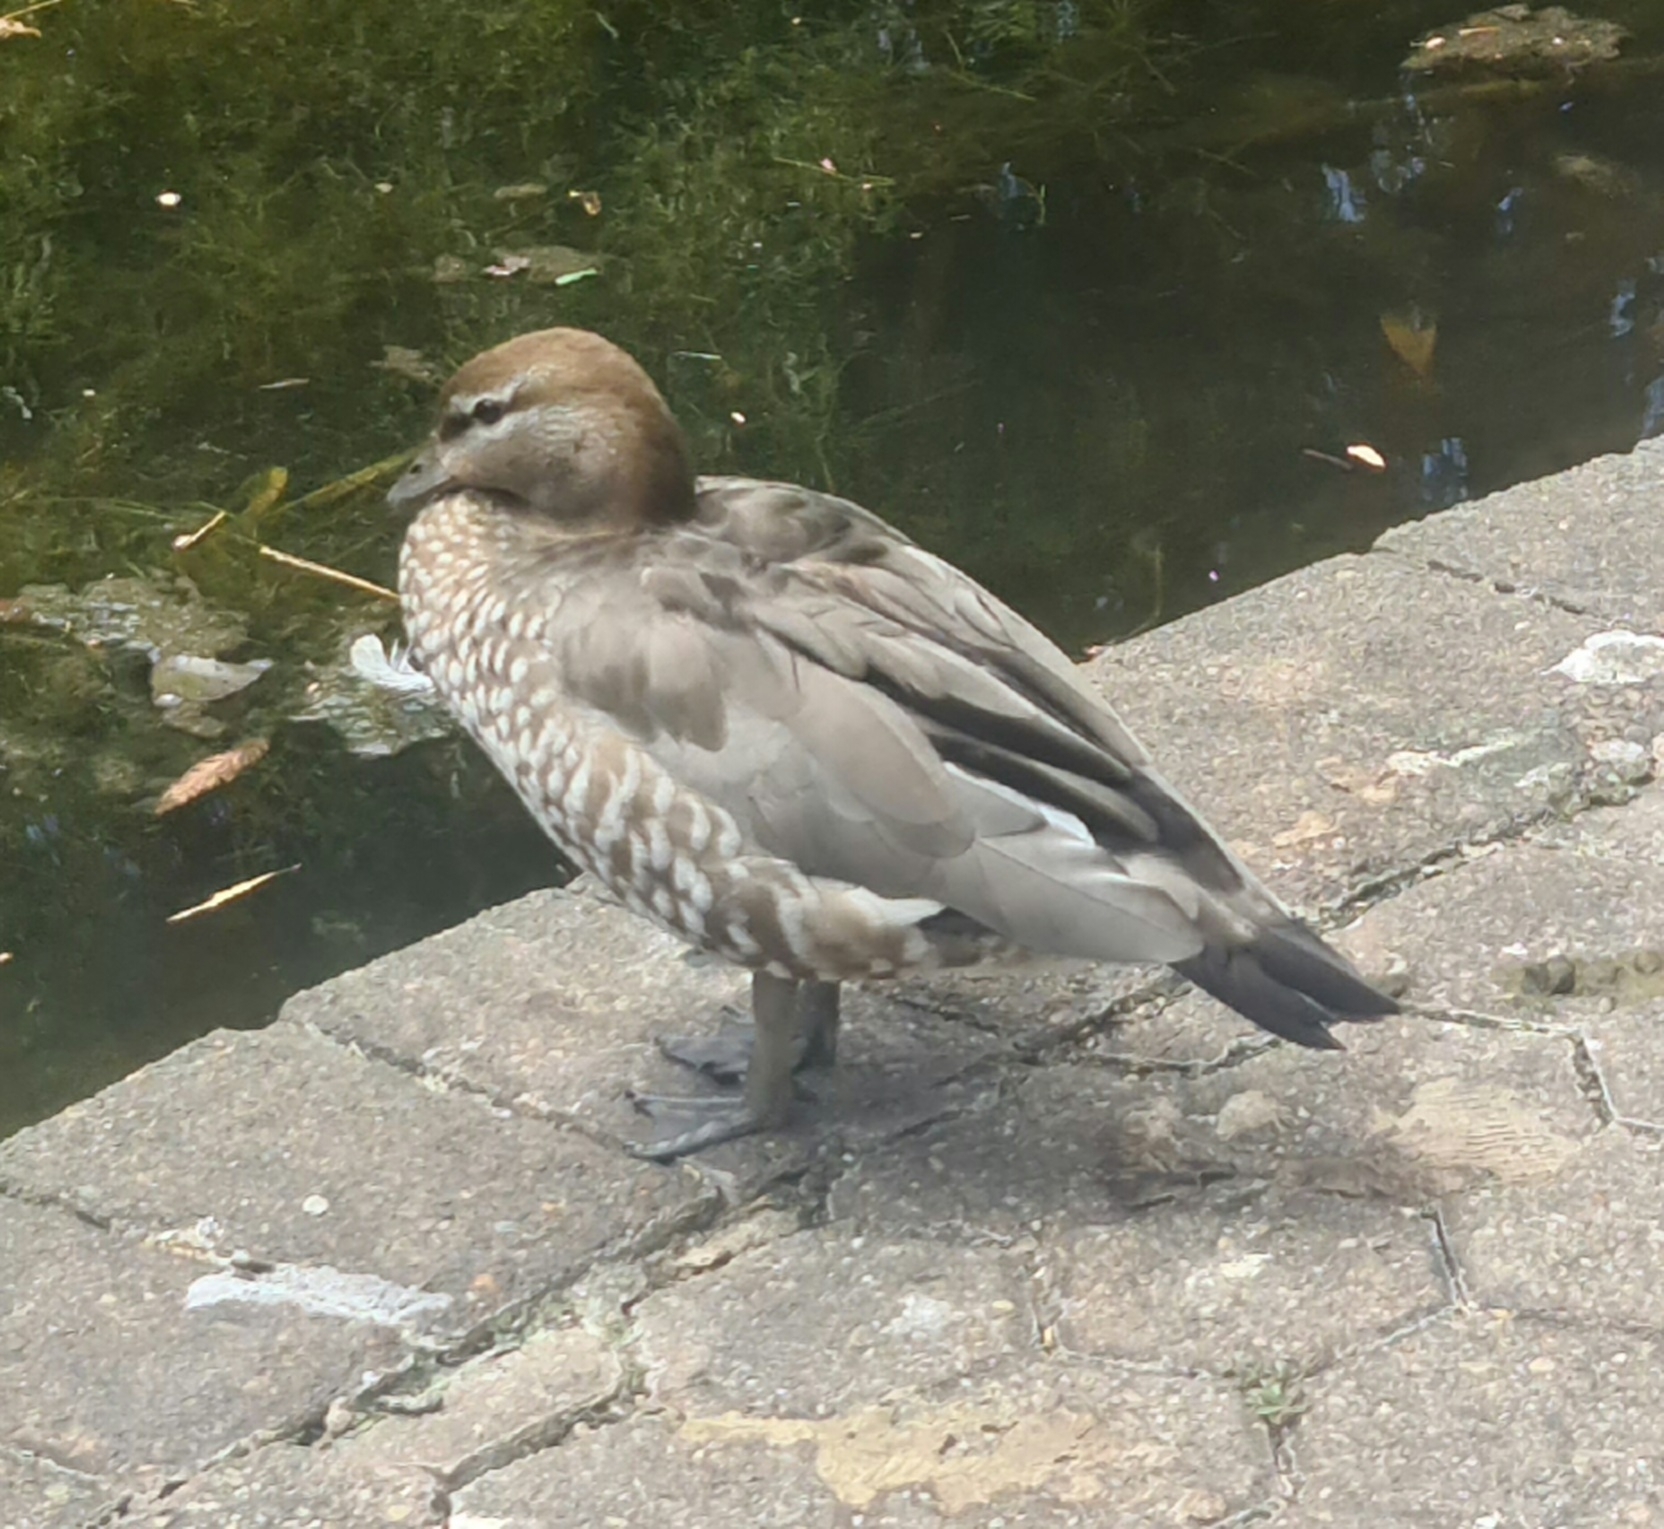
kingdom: Animalia
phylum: Chordata
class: Aves
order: Anseriformes
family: Anatidae
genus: Chenonetta
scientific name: Chenonetta jubata
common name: Maned duck
